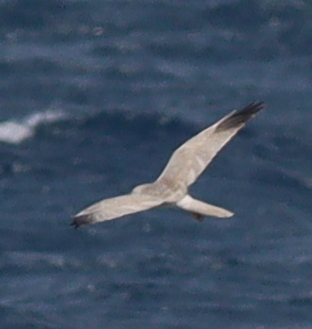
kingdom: Animalia
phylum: Chordata
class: Aves
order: Accipitriformes
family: Accipitridae
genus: Circus
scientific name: Circus macrourus
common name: Pallid harrier
